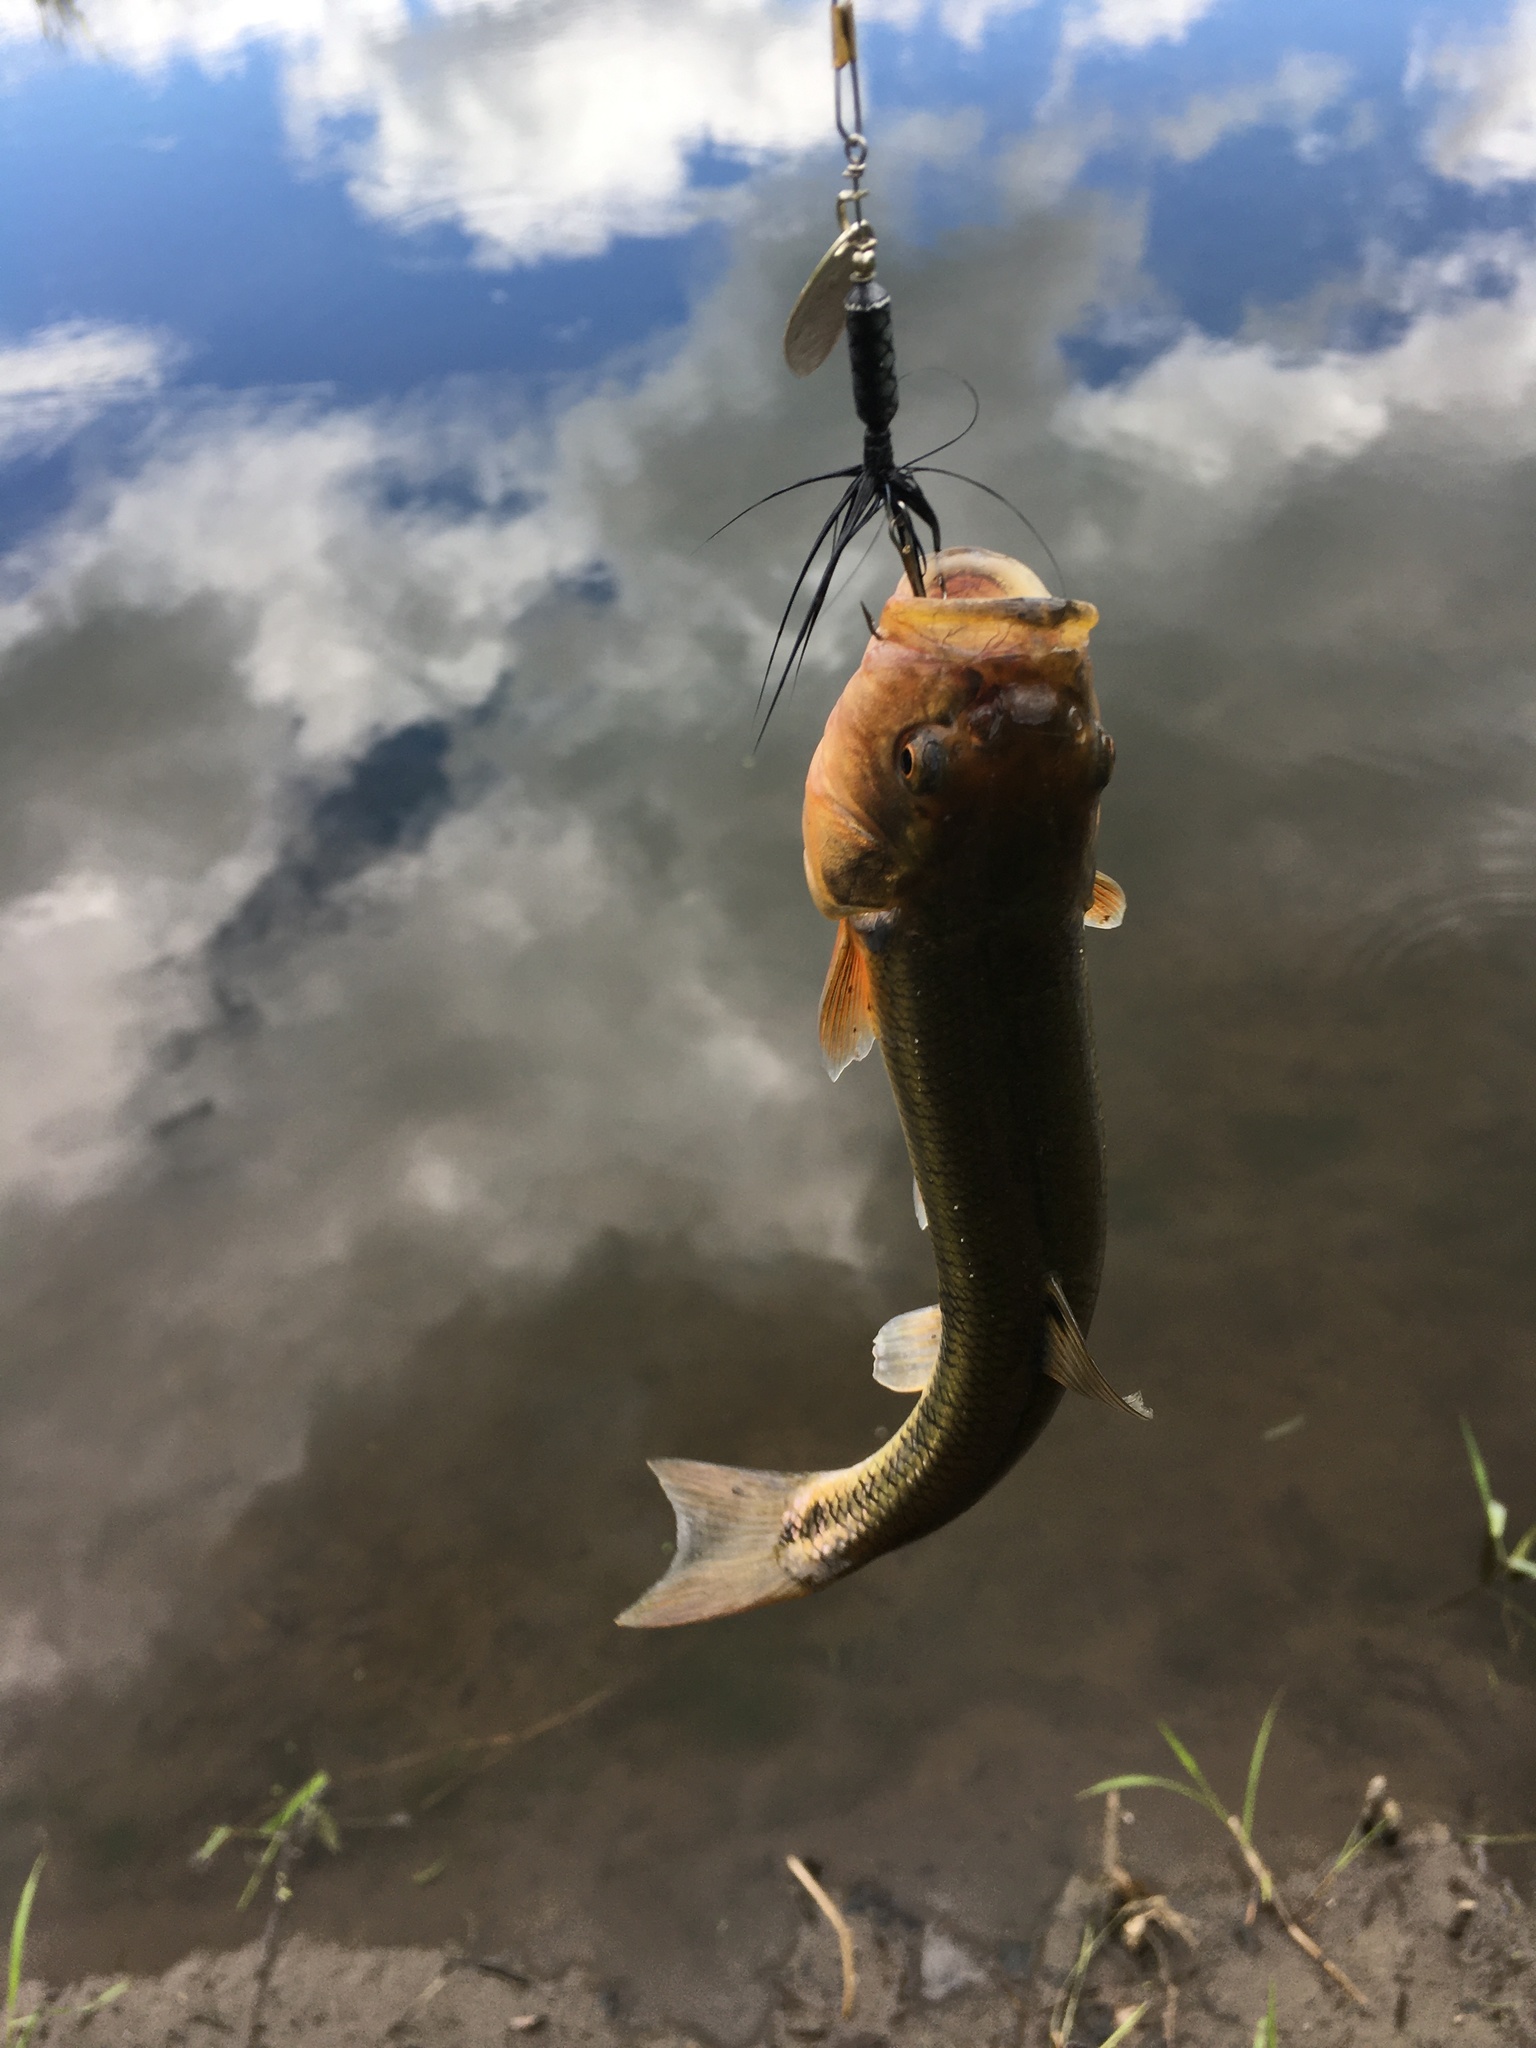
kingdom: Animalia
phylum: Chordata
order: Cypriniformes
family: Cyprinidae
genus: Semotilus
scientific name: Semotilus atromaculatus
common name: Creek chub
